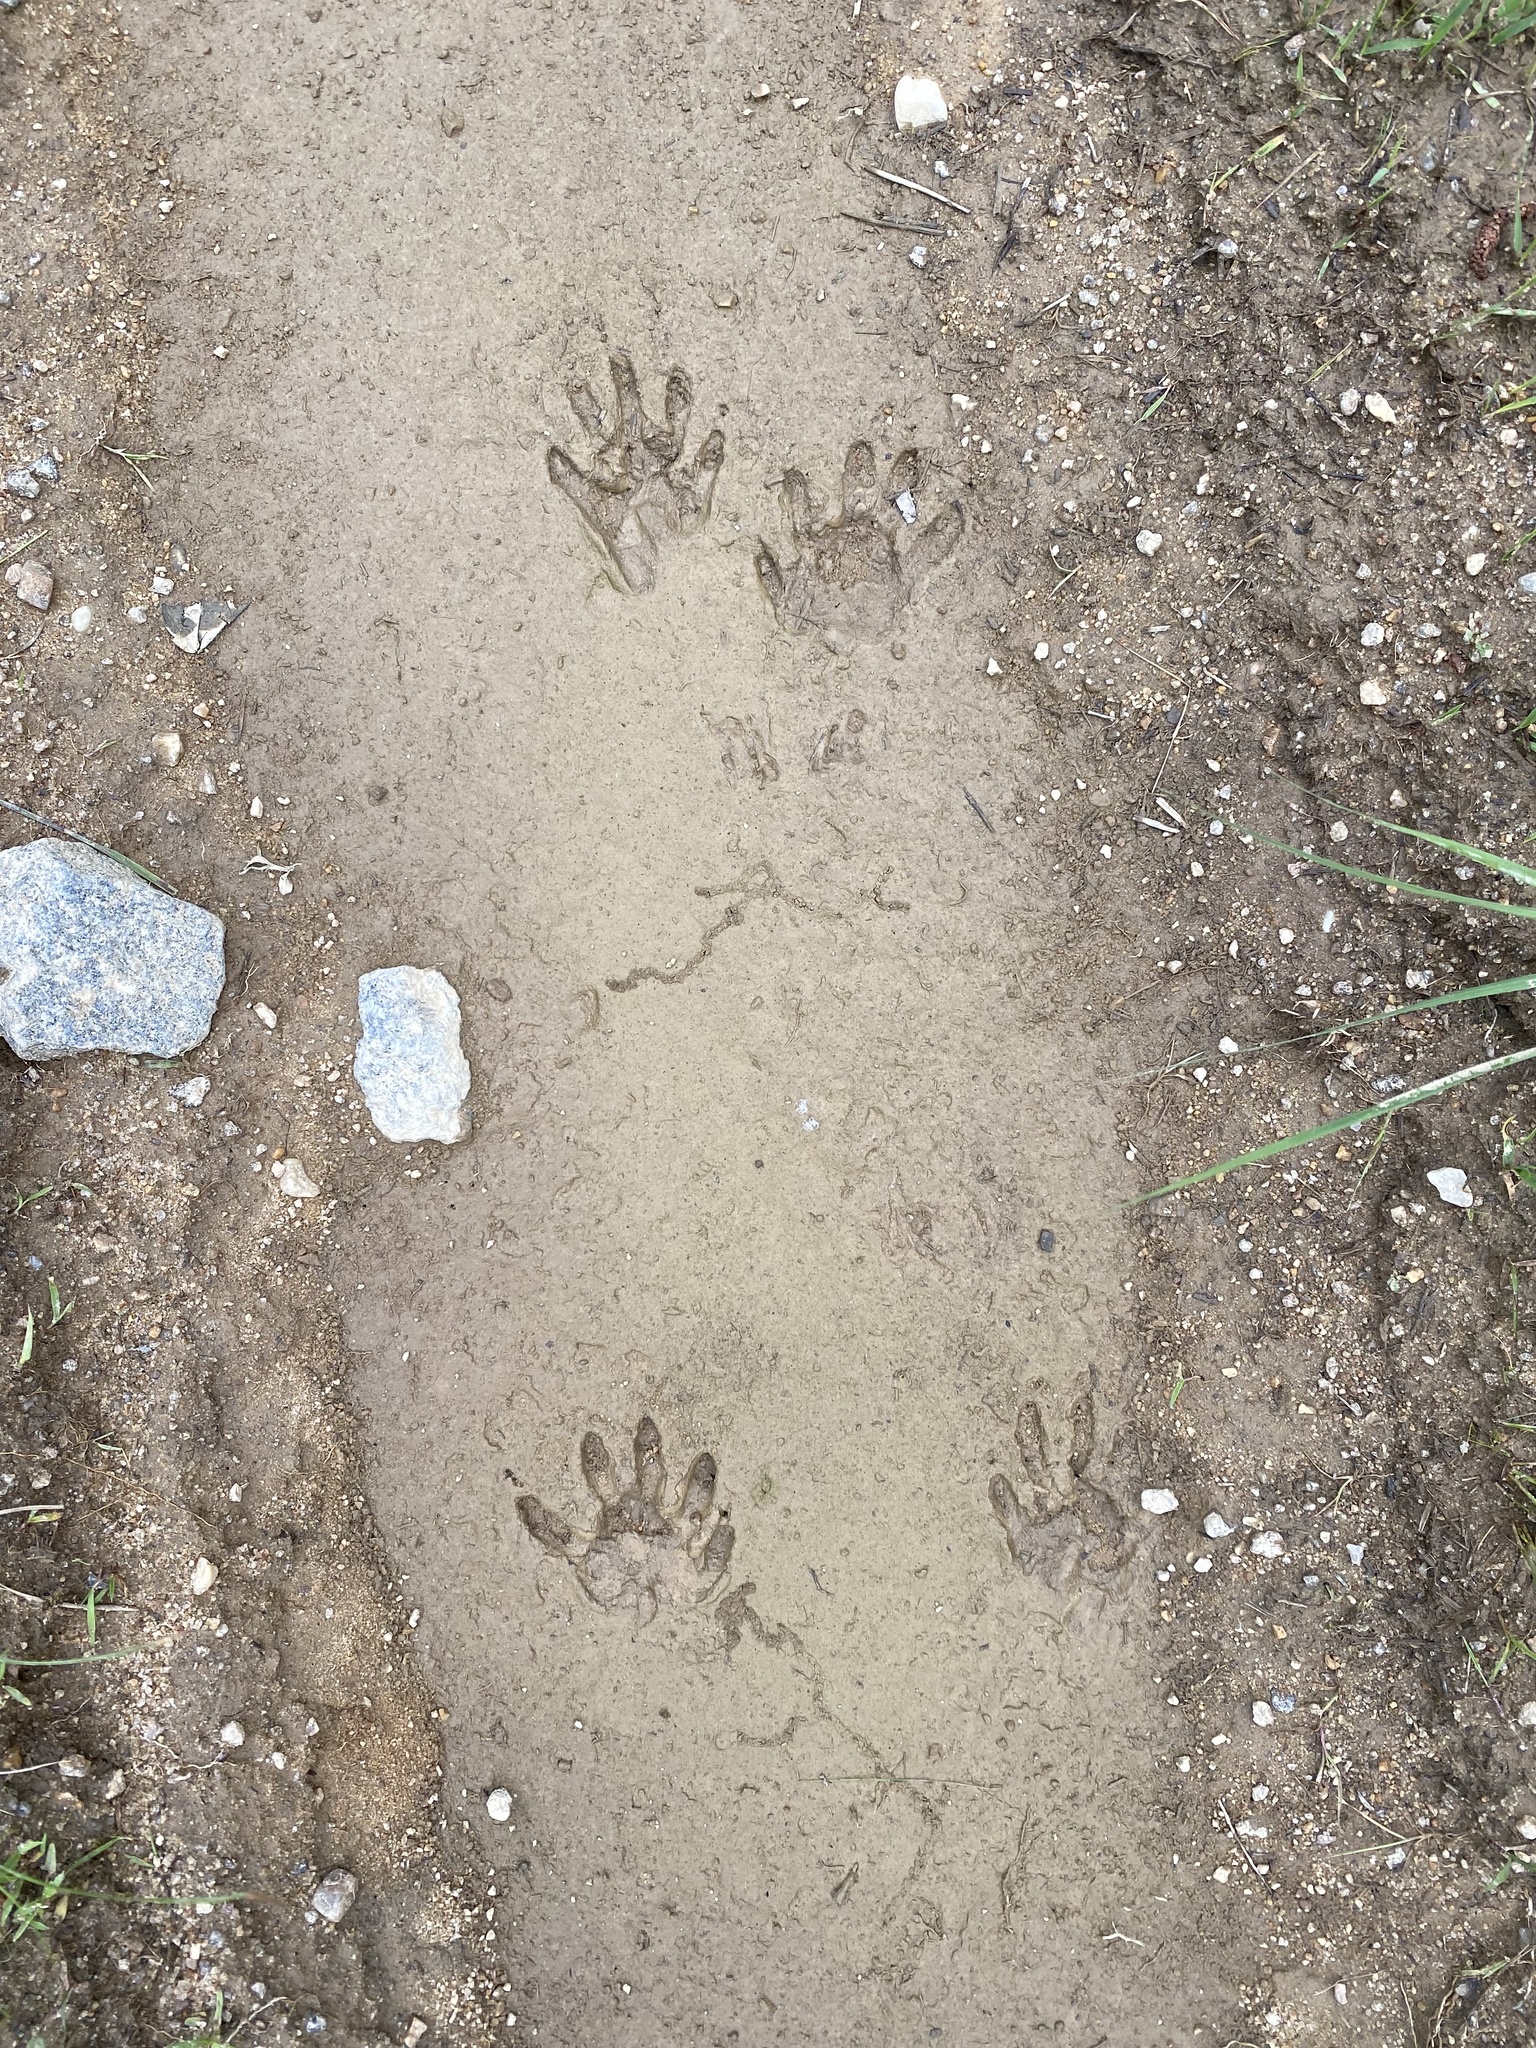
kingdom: Animalia
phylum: Chordata
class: Mammalia
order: Carnivora
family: Procyonidae
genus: Procyon
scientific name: Procyon lotor
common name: Raccoon
